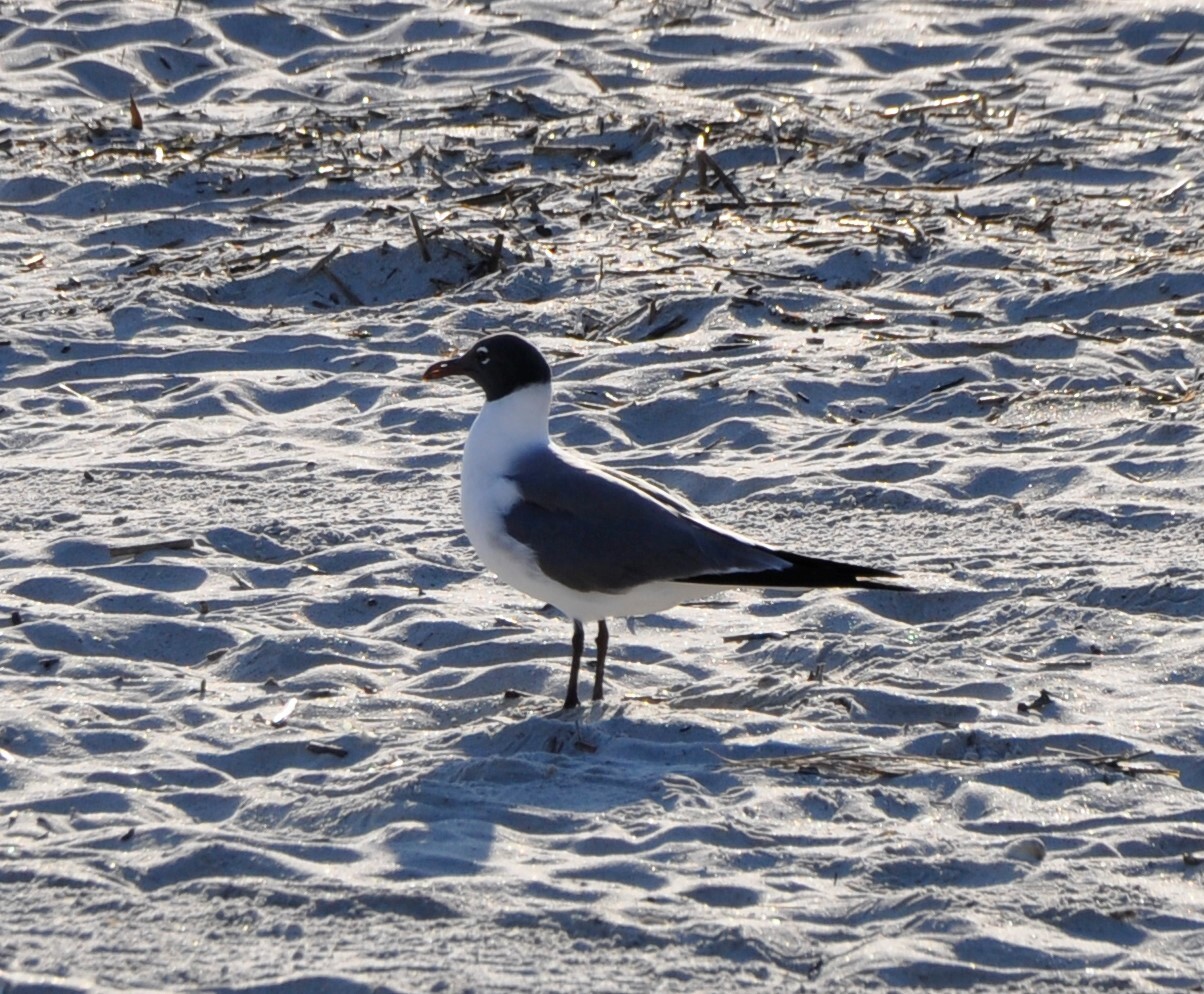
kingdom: Animalia
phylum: Chordata
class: Aves
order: Charadriiformes
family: Laridae
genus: Leucophaeus
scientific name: Leucophaeus atricilla
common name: Laughing gull
